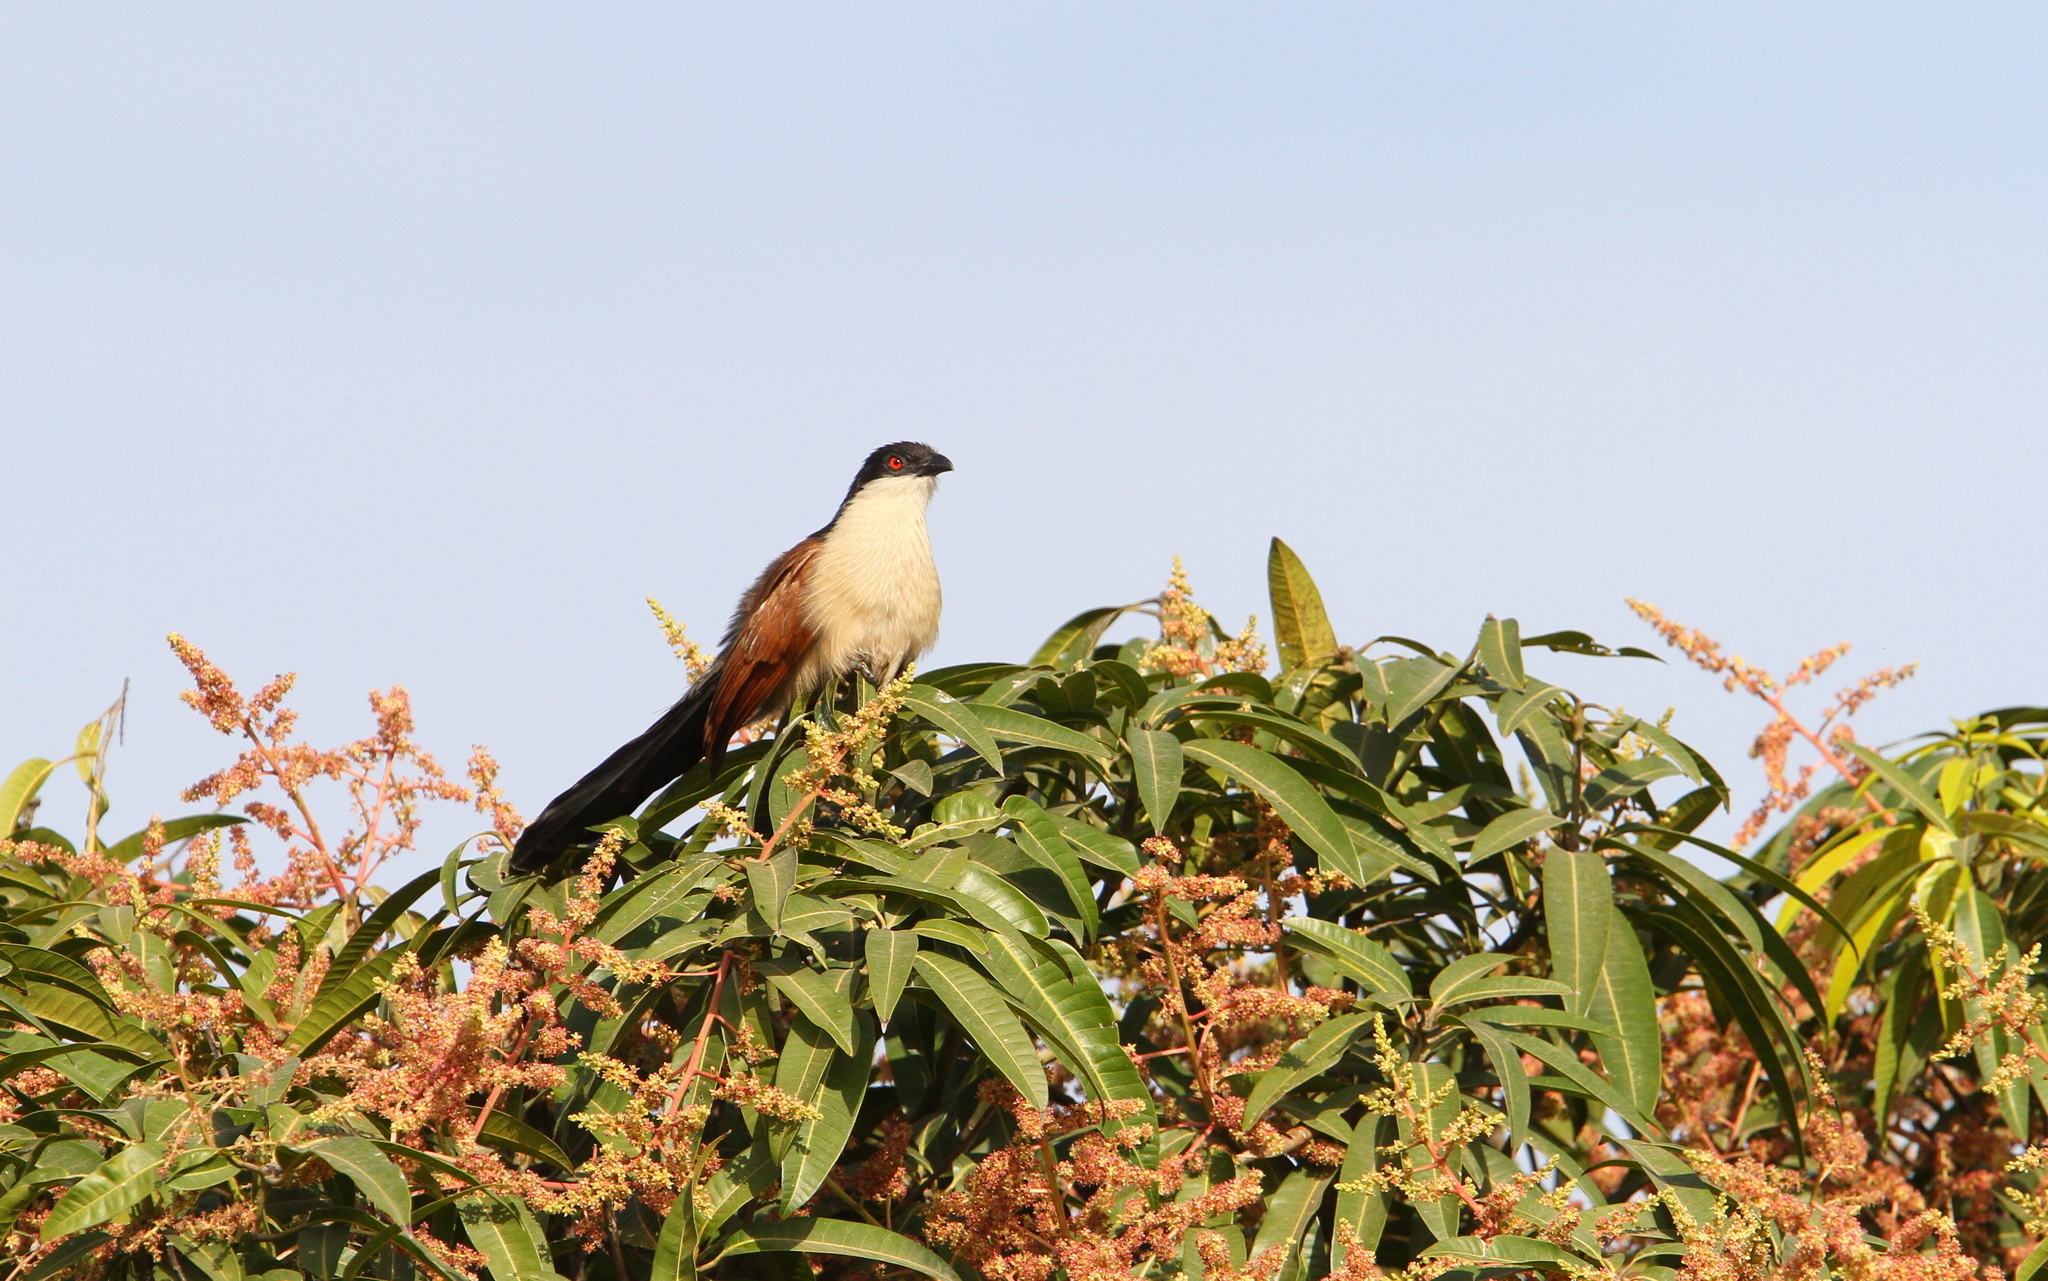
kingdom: Animalia
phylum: Chordata
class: Aves
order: Cuculiformes
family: Cuculidae
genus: Centropus
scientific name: Centropus senegalensis
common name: Senegal coucal
